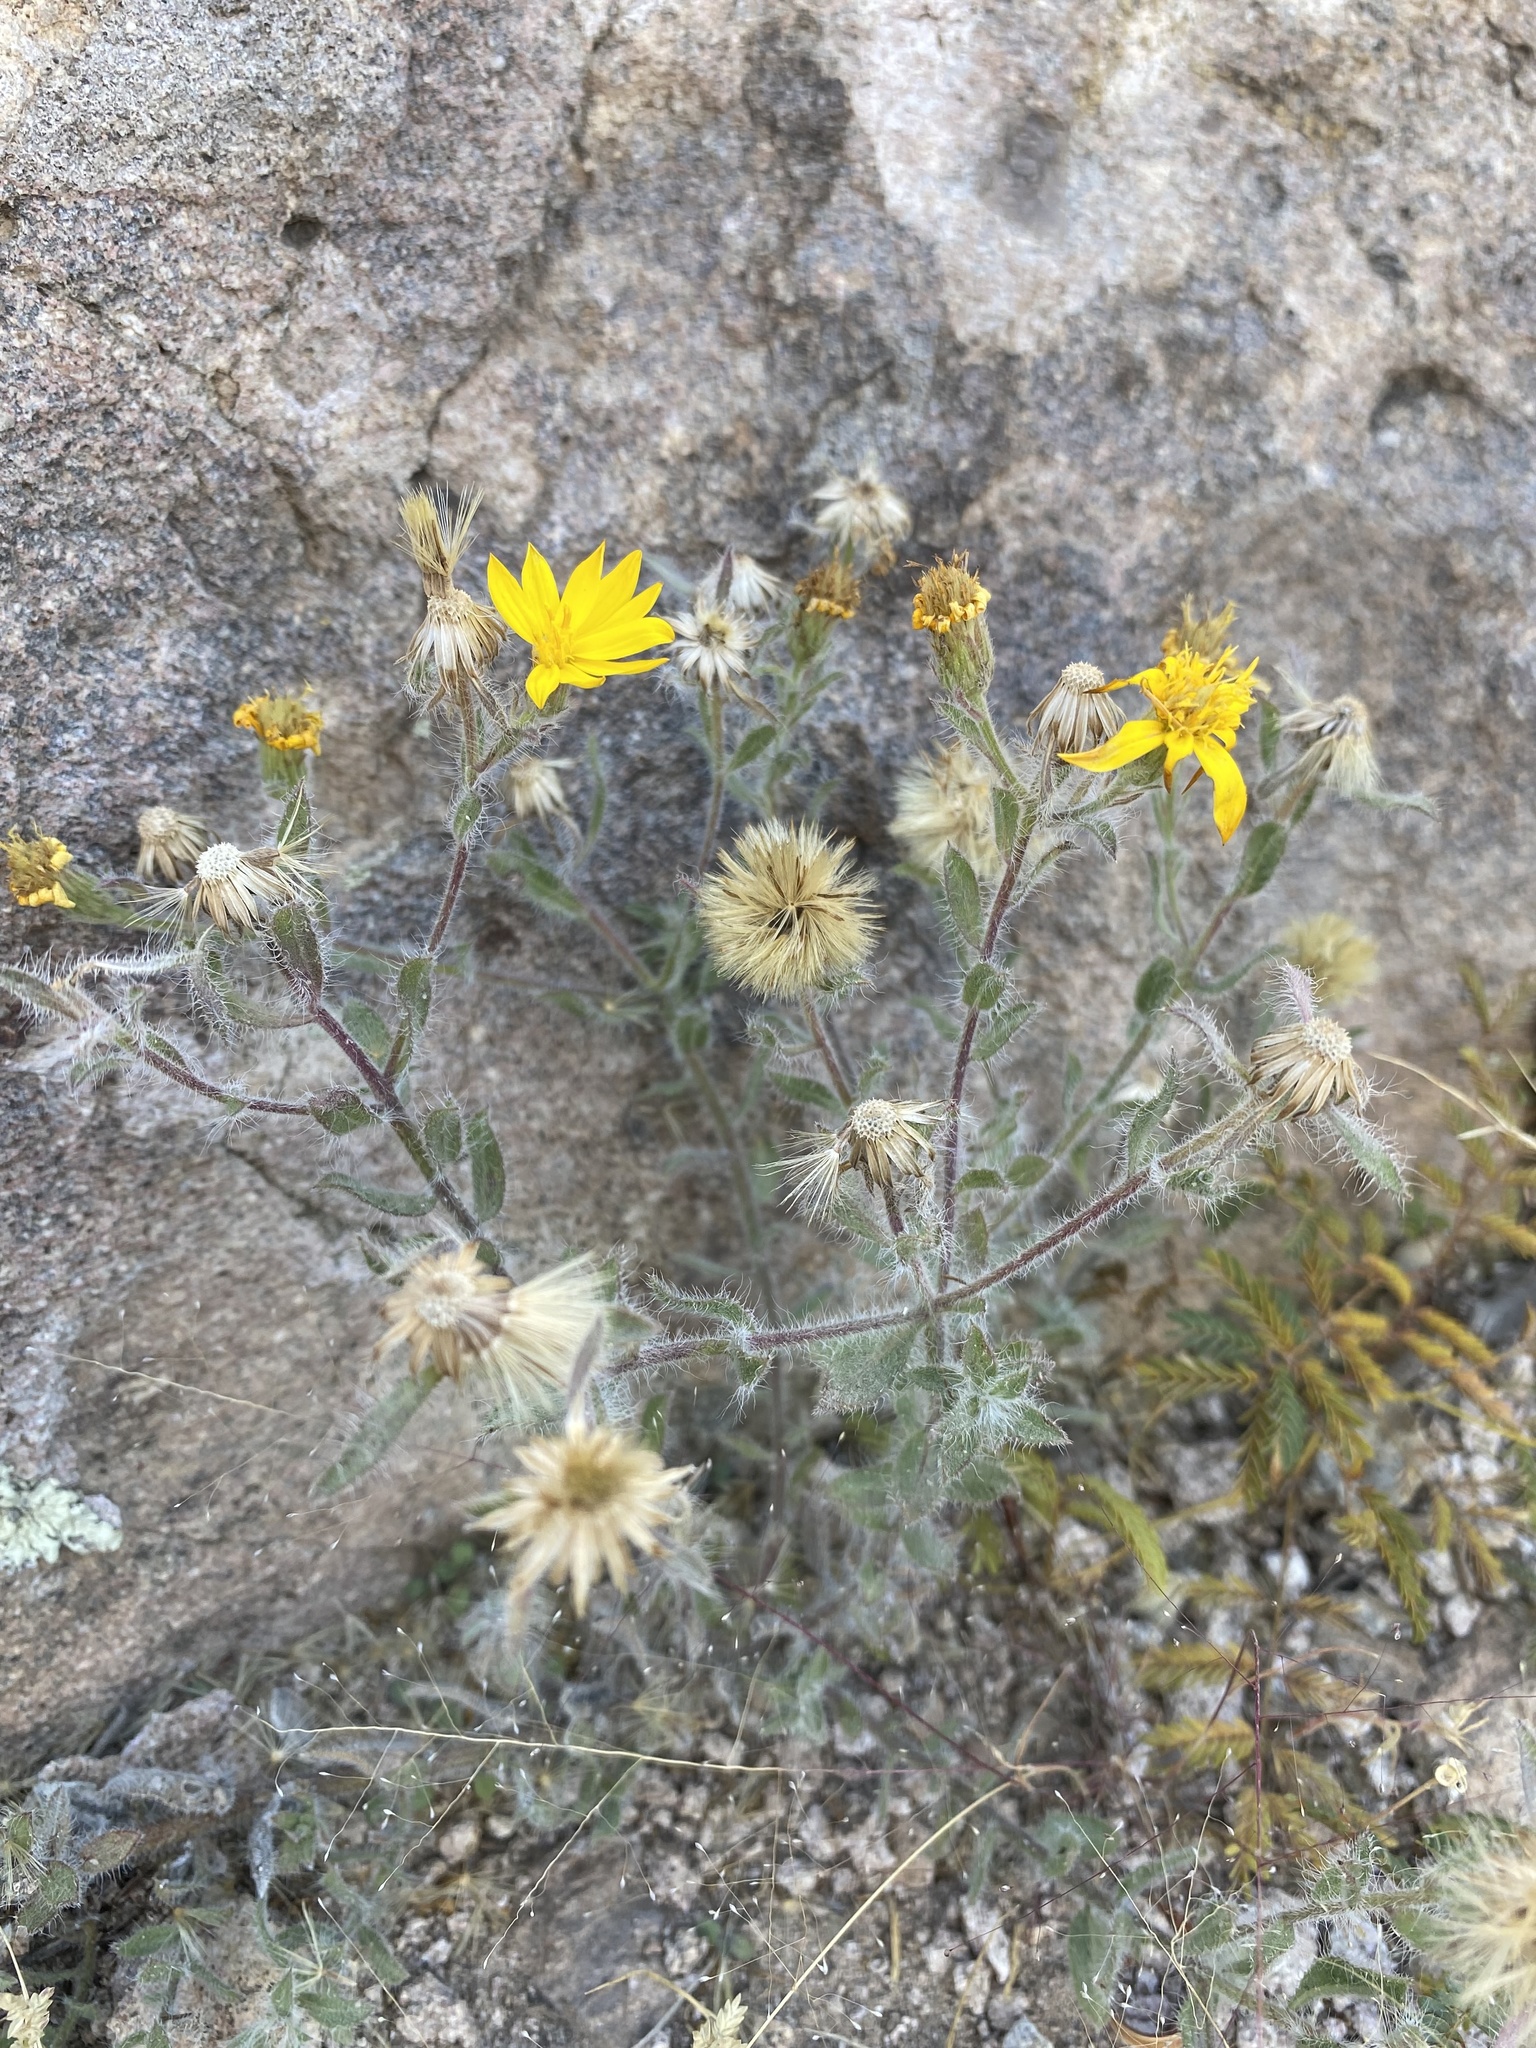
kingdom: Plantae
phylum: Tracheophyta
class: Magnoliopsida
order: Asterales
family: Asteraceae
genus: Heterotheca
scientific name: Heterotheca marginata
